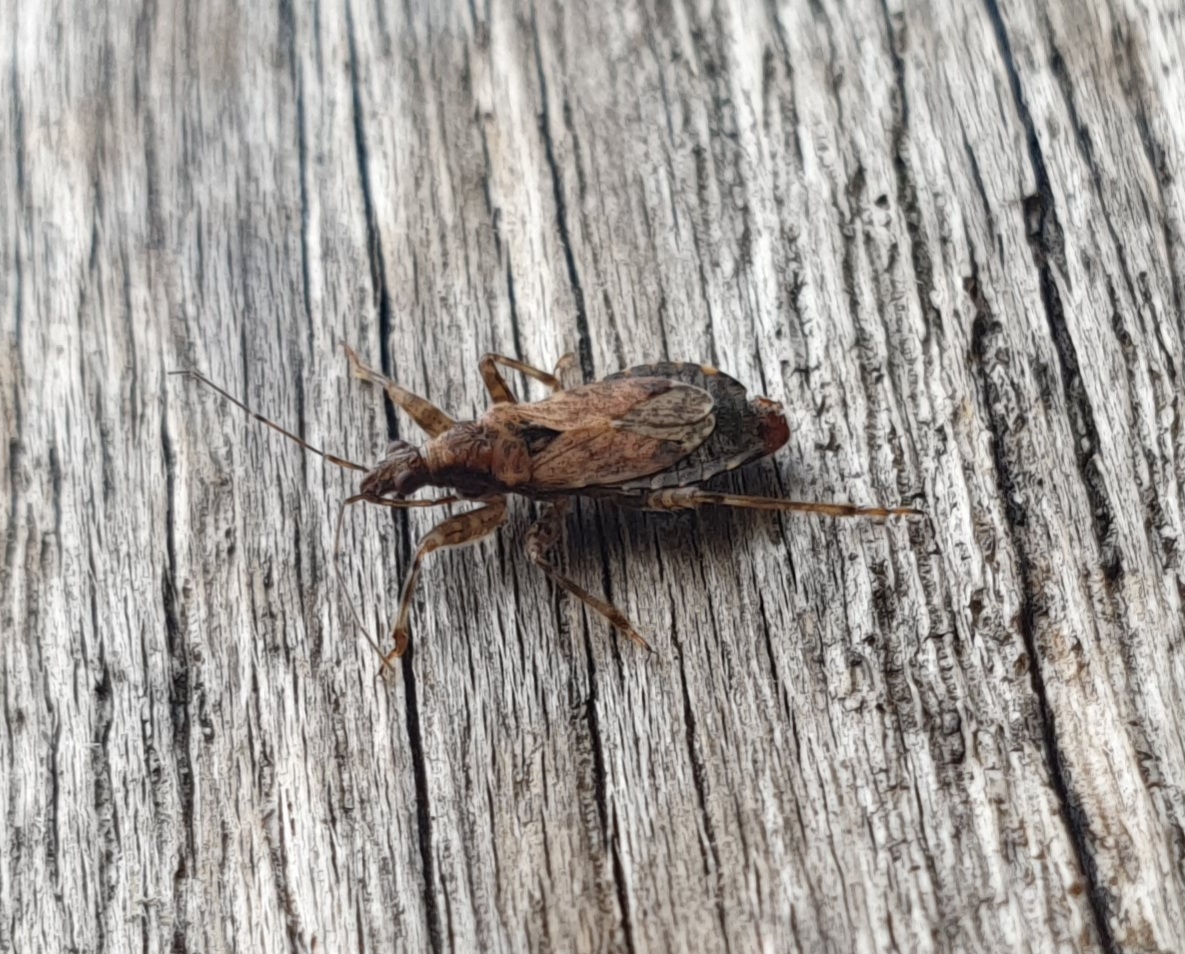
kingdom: Animalia
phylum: Arthropoda
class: Insecta
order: Hemiptera
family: Nabidae
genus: Himacerus
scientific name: Himacerus mirmicoides
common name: Ant damsel bug
